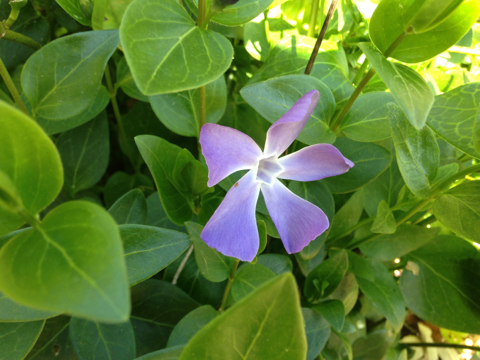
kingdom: Plantae
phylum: Tracheophyta
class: Magnoliopsida
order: Gentianales
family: Apocynaceae
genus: Vinca
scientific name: Vinca major
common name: Greater periwinkle
